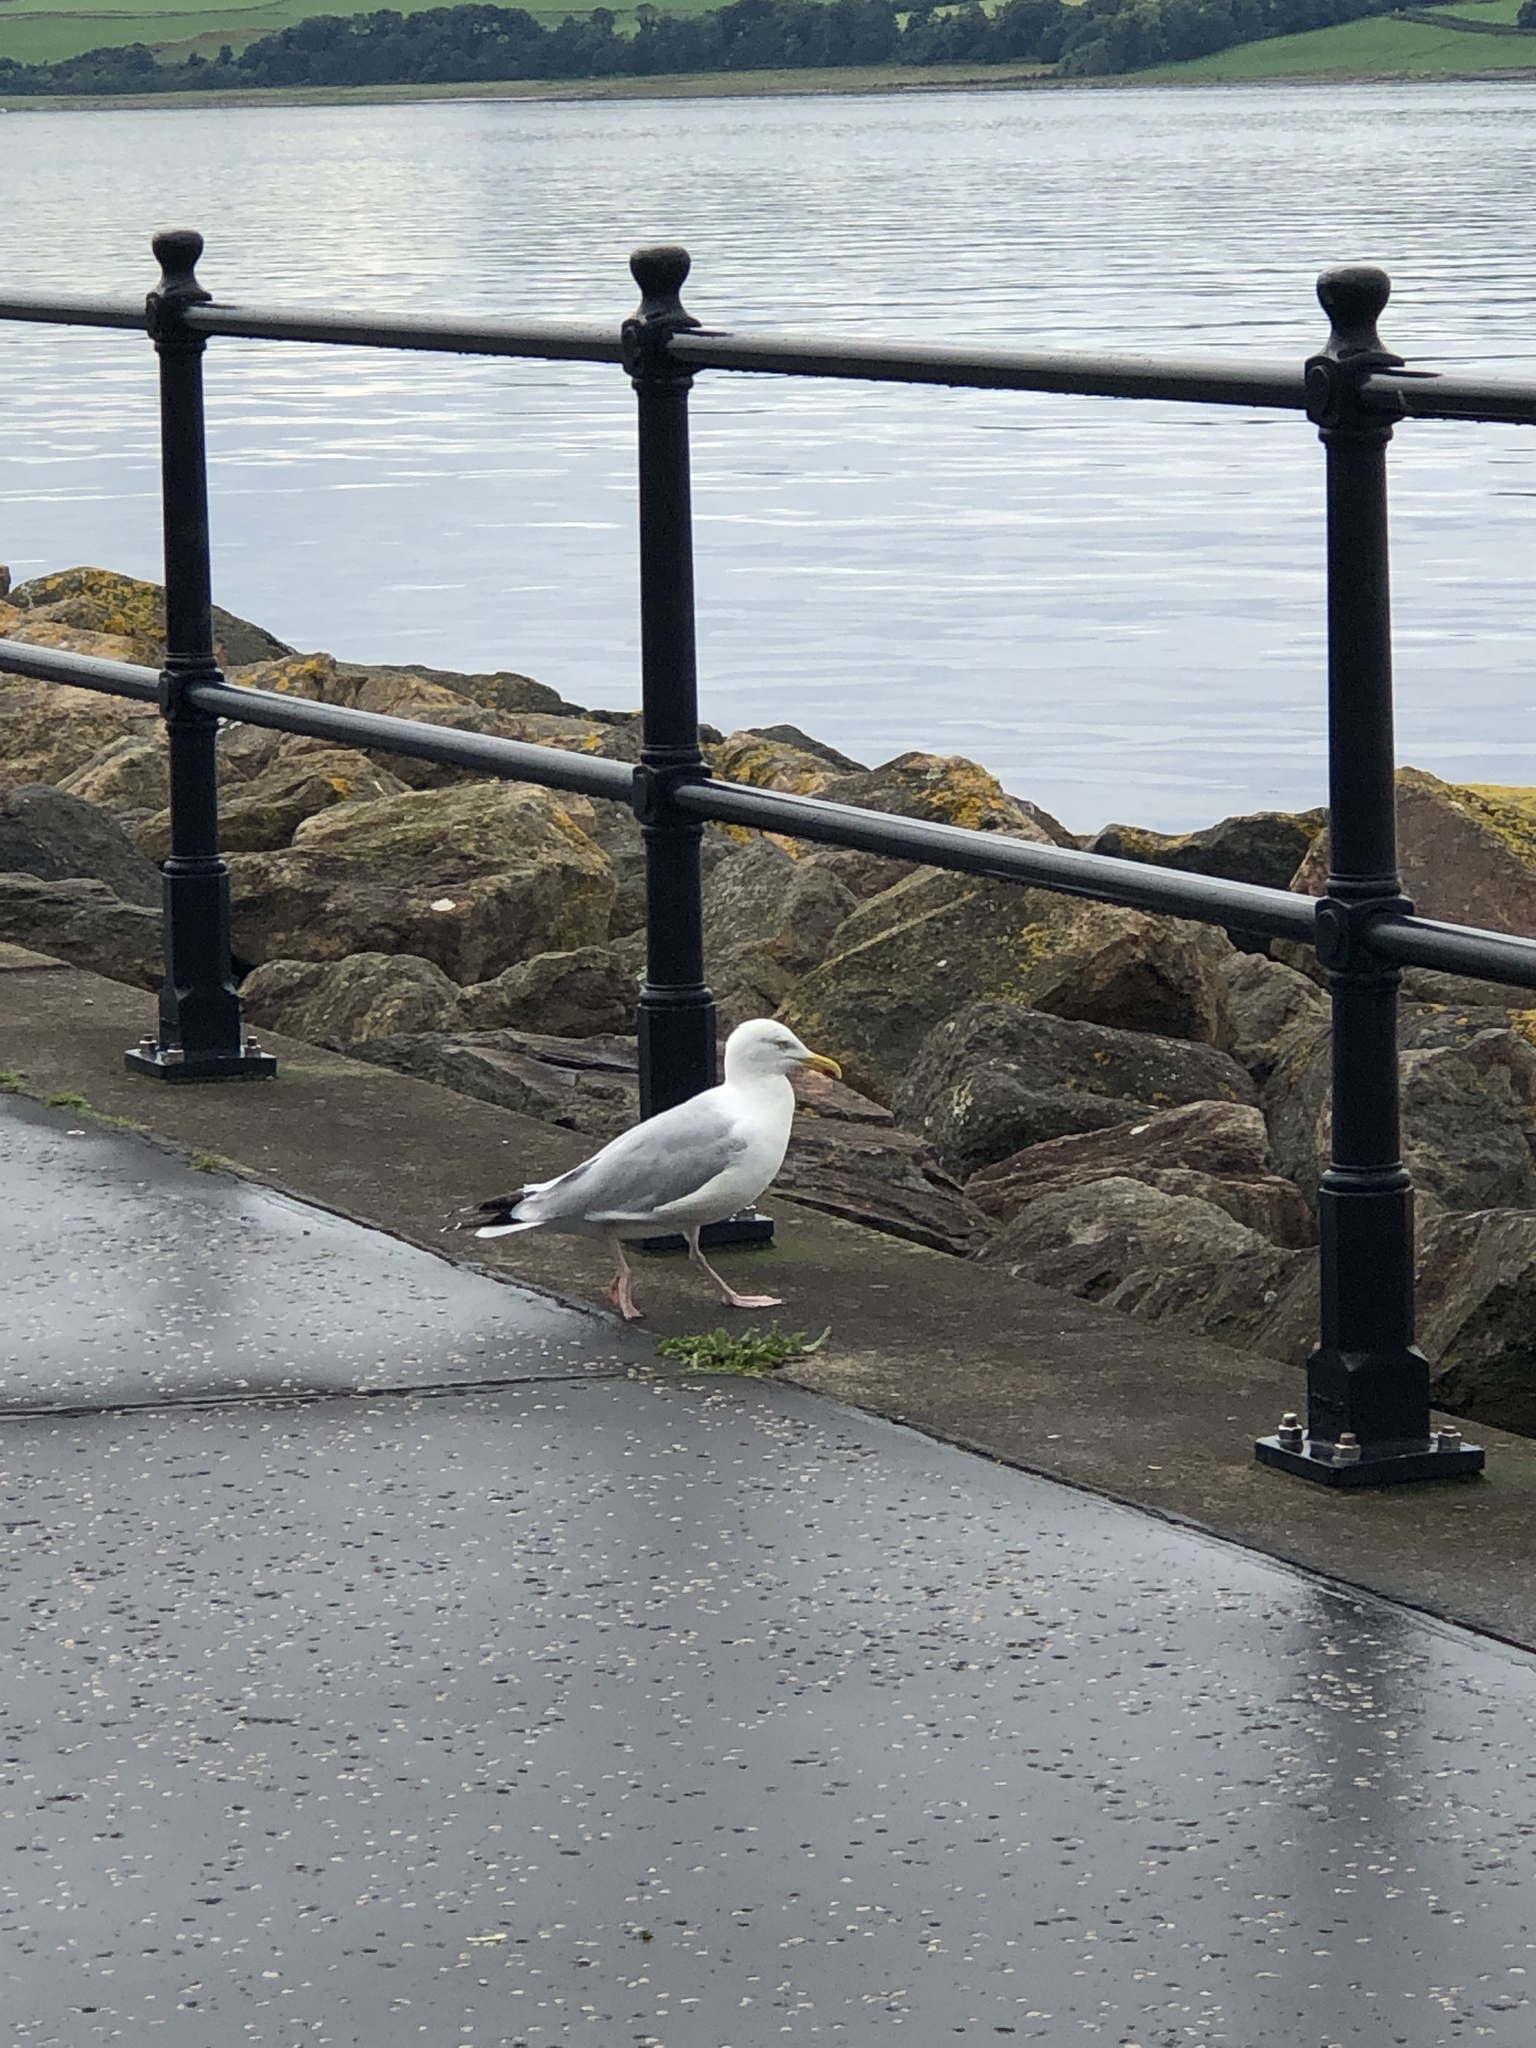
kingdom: Animalia
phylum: Chordata
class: Aves
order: Charadriiformes
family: Laridae
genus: Larus
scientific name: Larus argentatus
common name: Herring gull
